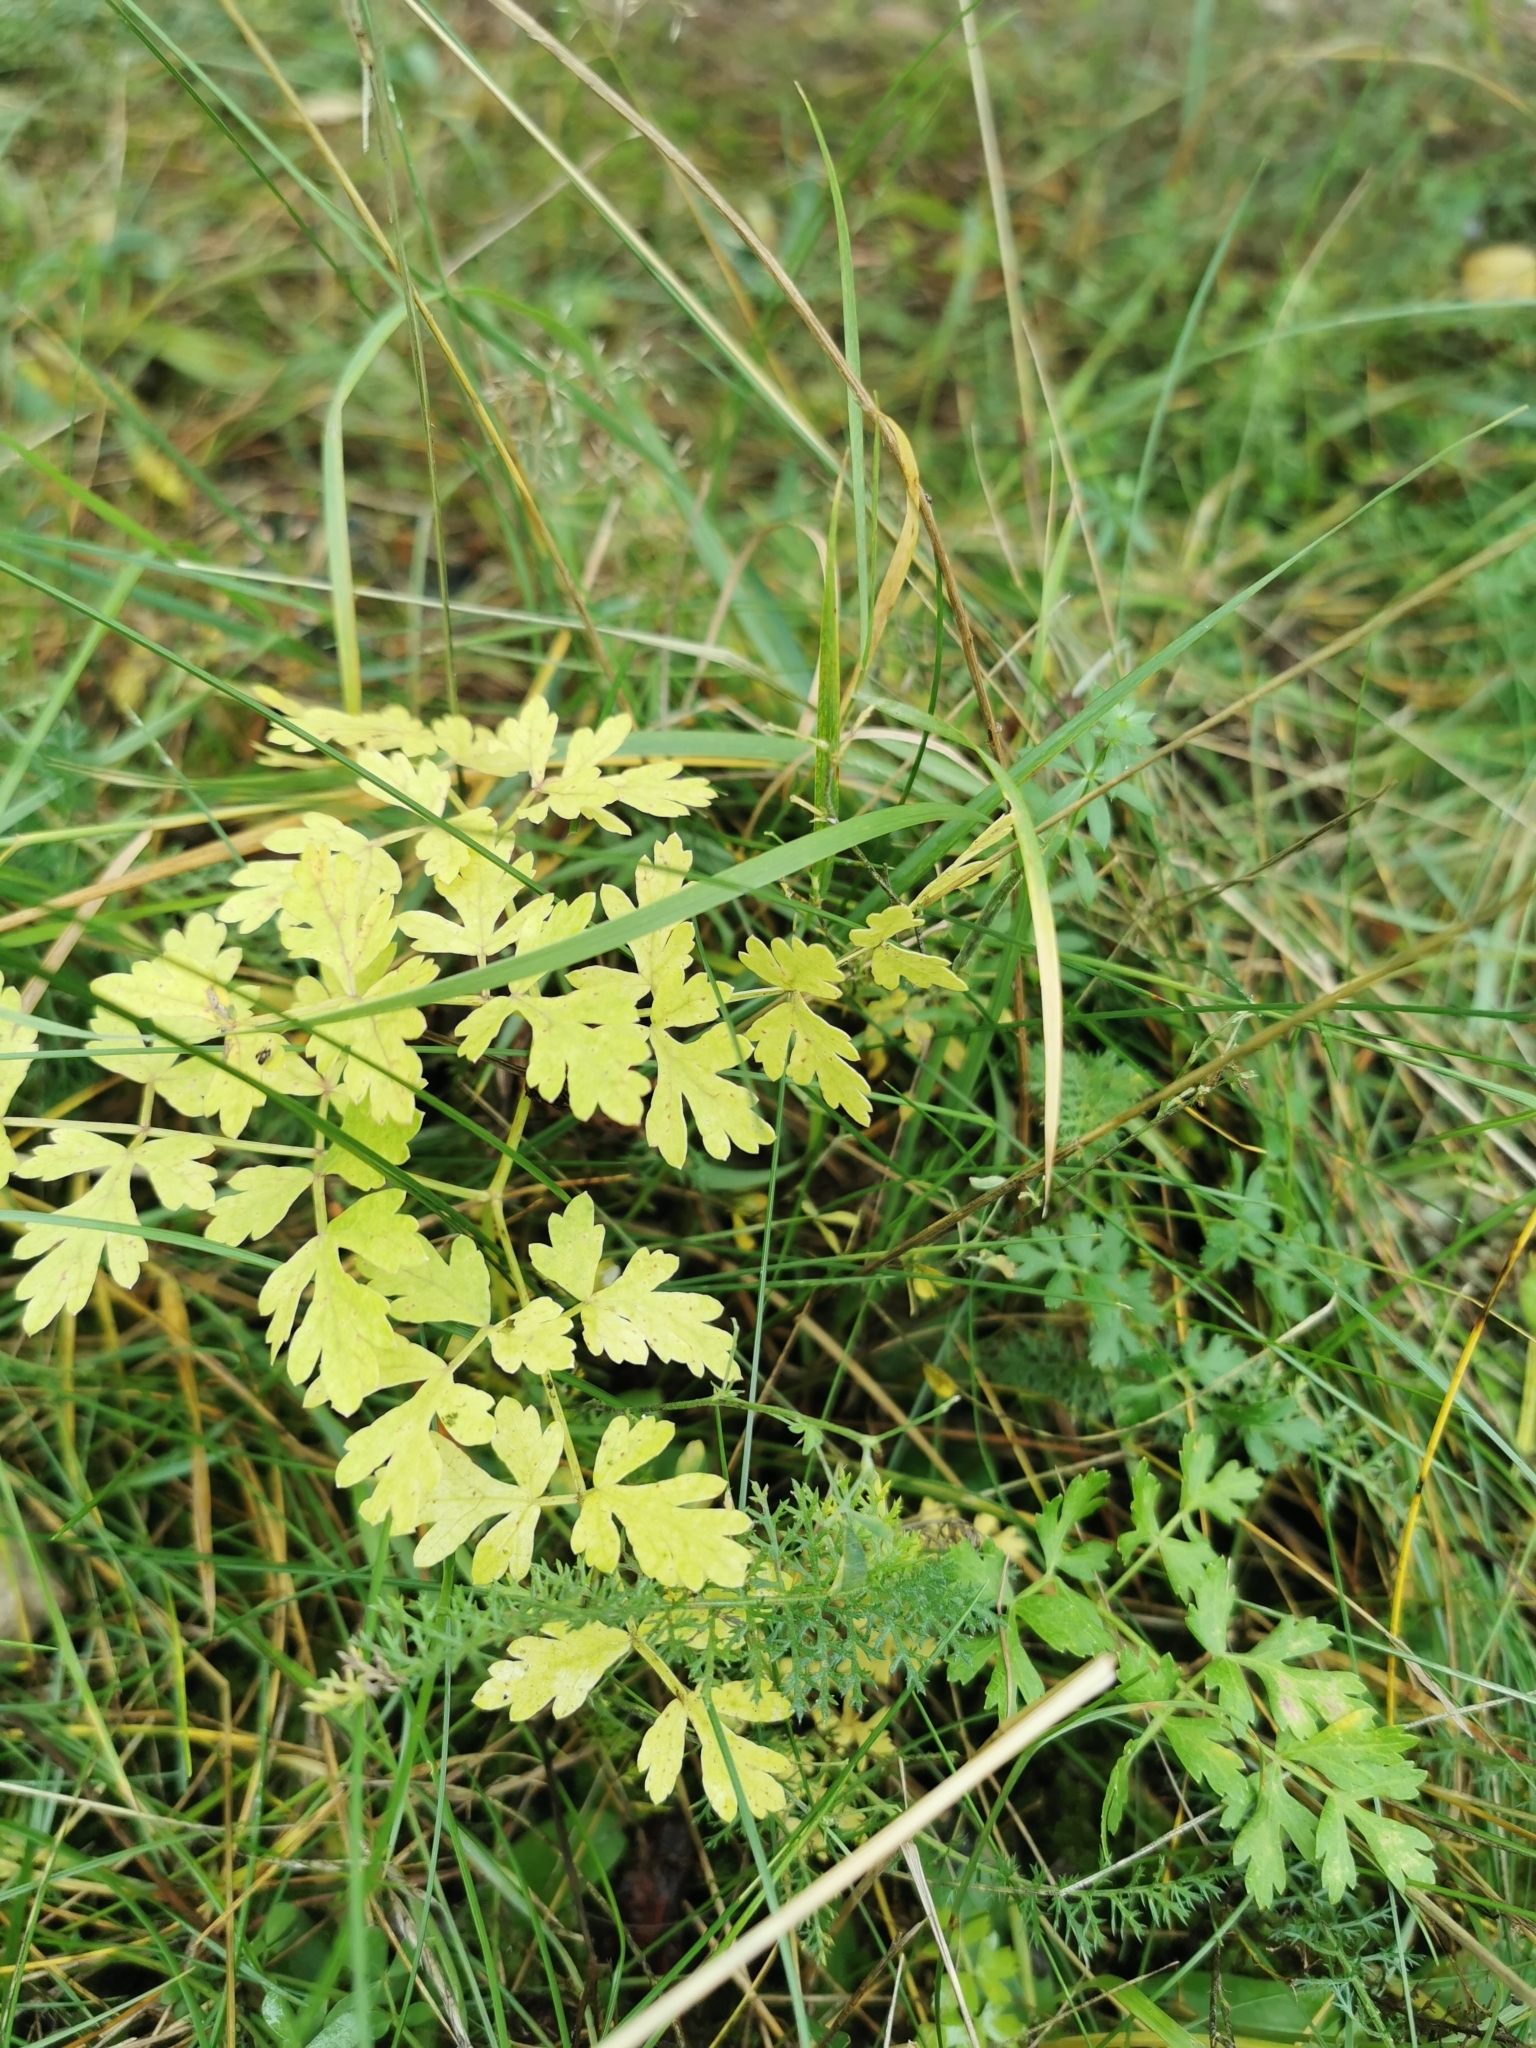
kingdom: Plantae
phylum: Tracheophyta
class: Magnoliopsida
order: Apiales
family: Apiaceae
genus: Oreoselinum
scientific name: Oreoselinum nigrum
